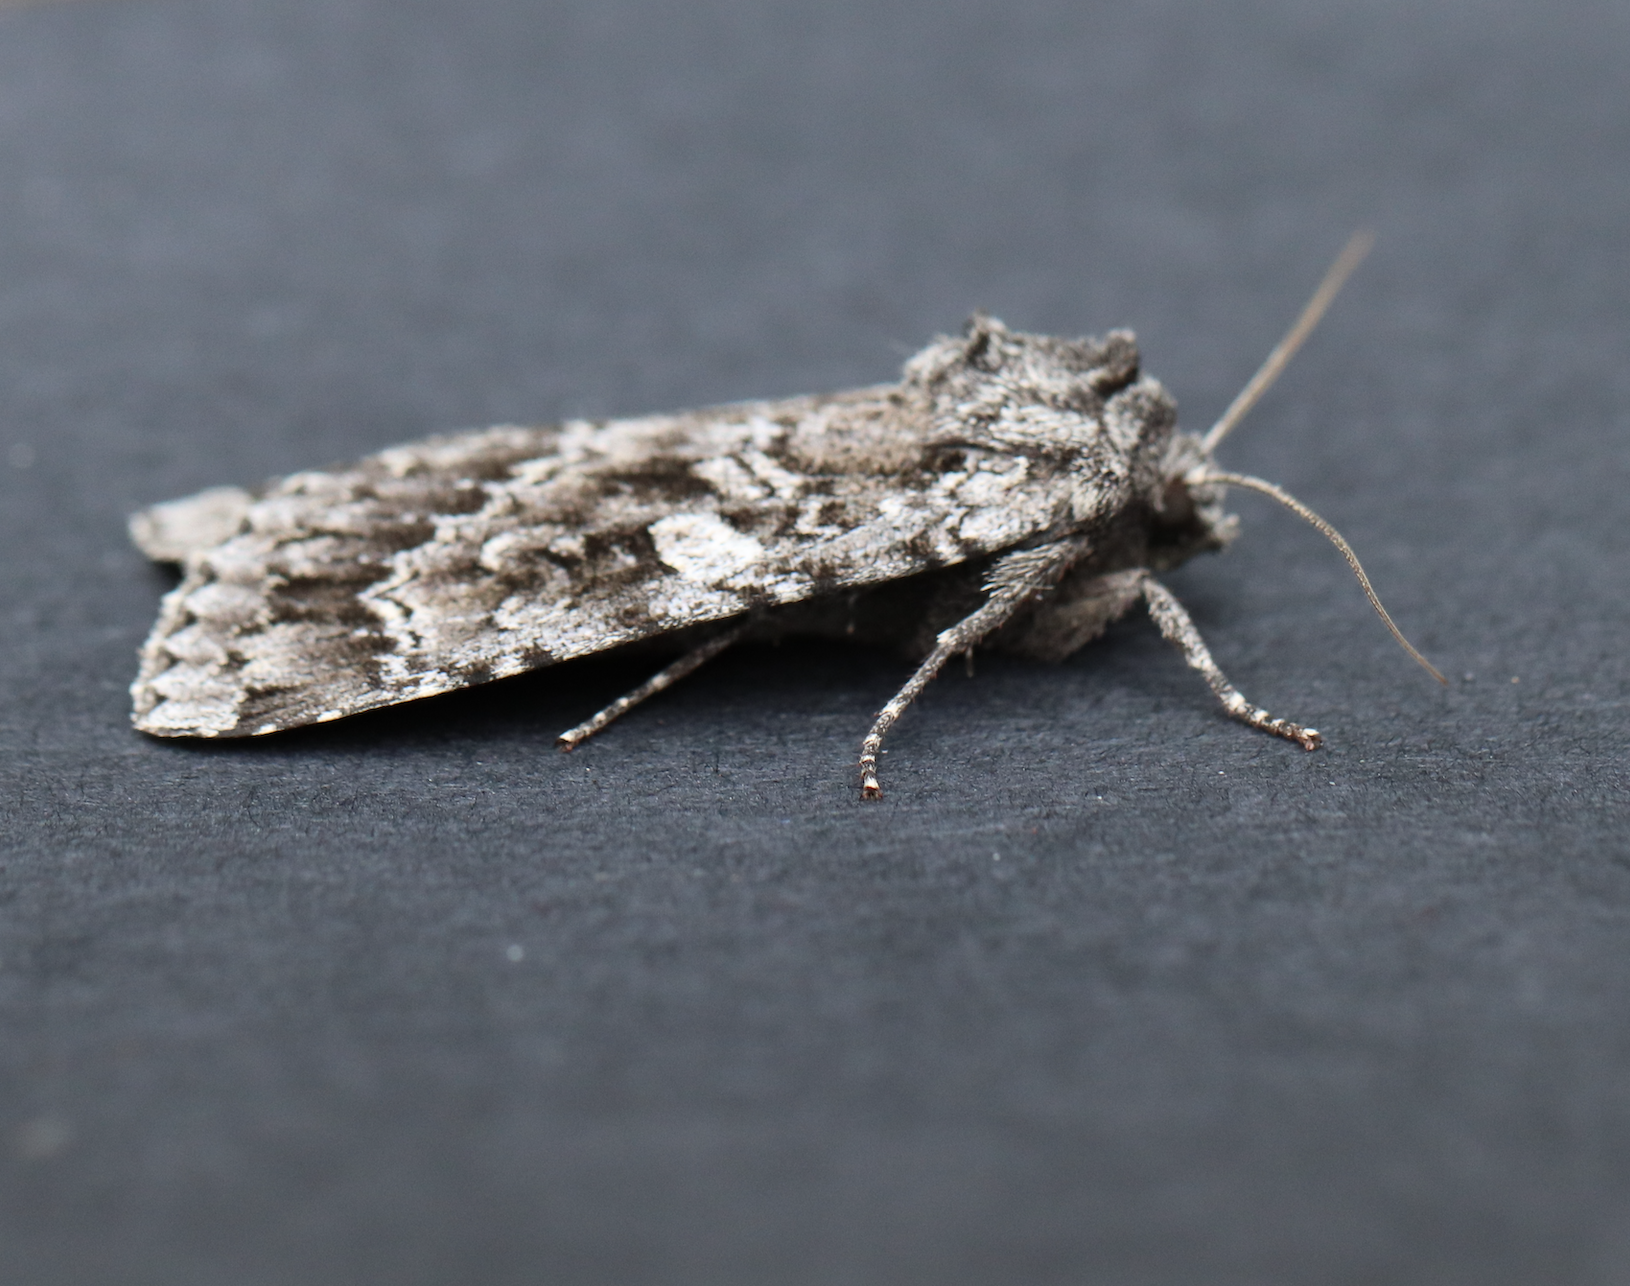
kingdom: Animalia
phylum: Arthropoda
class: Insecta
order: Lepidoptera
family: Noctuidae
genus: Eurois
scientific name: Eurois occulta
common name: Great brocade
